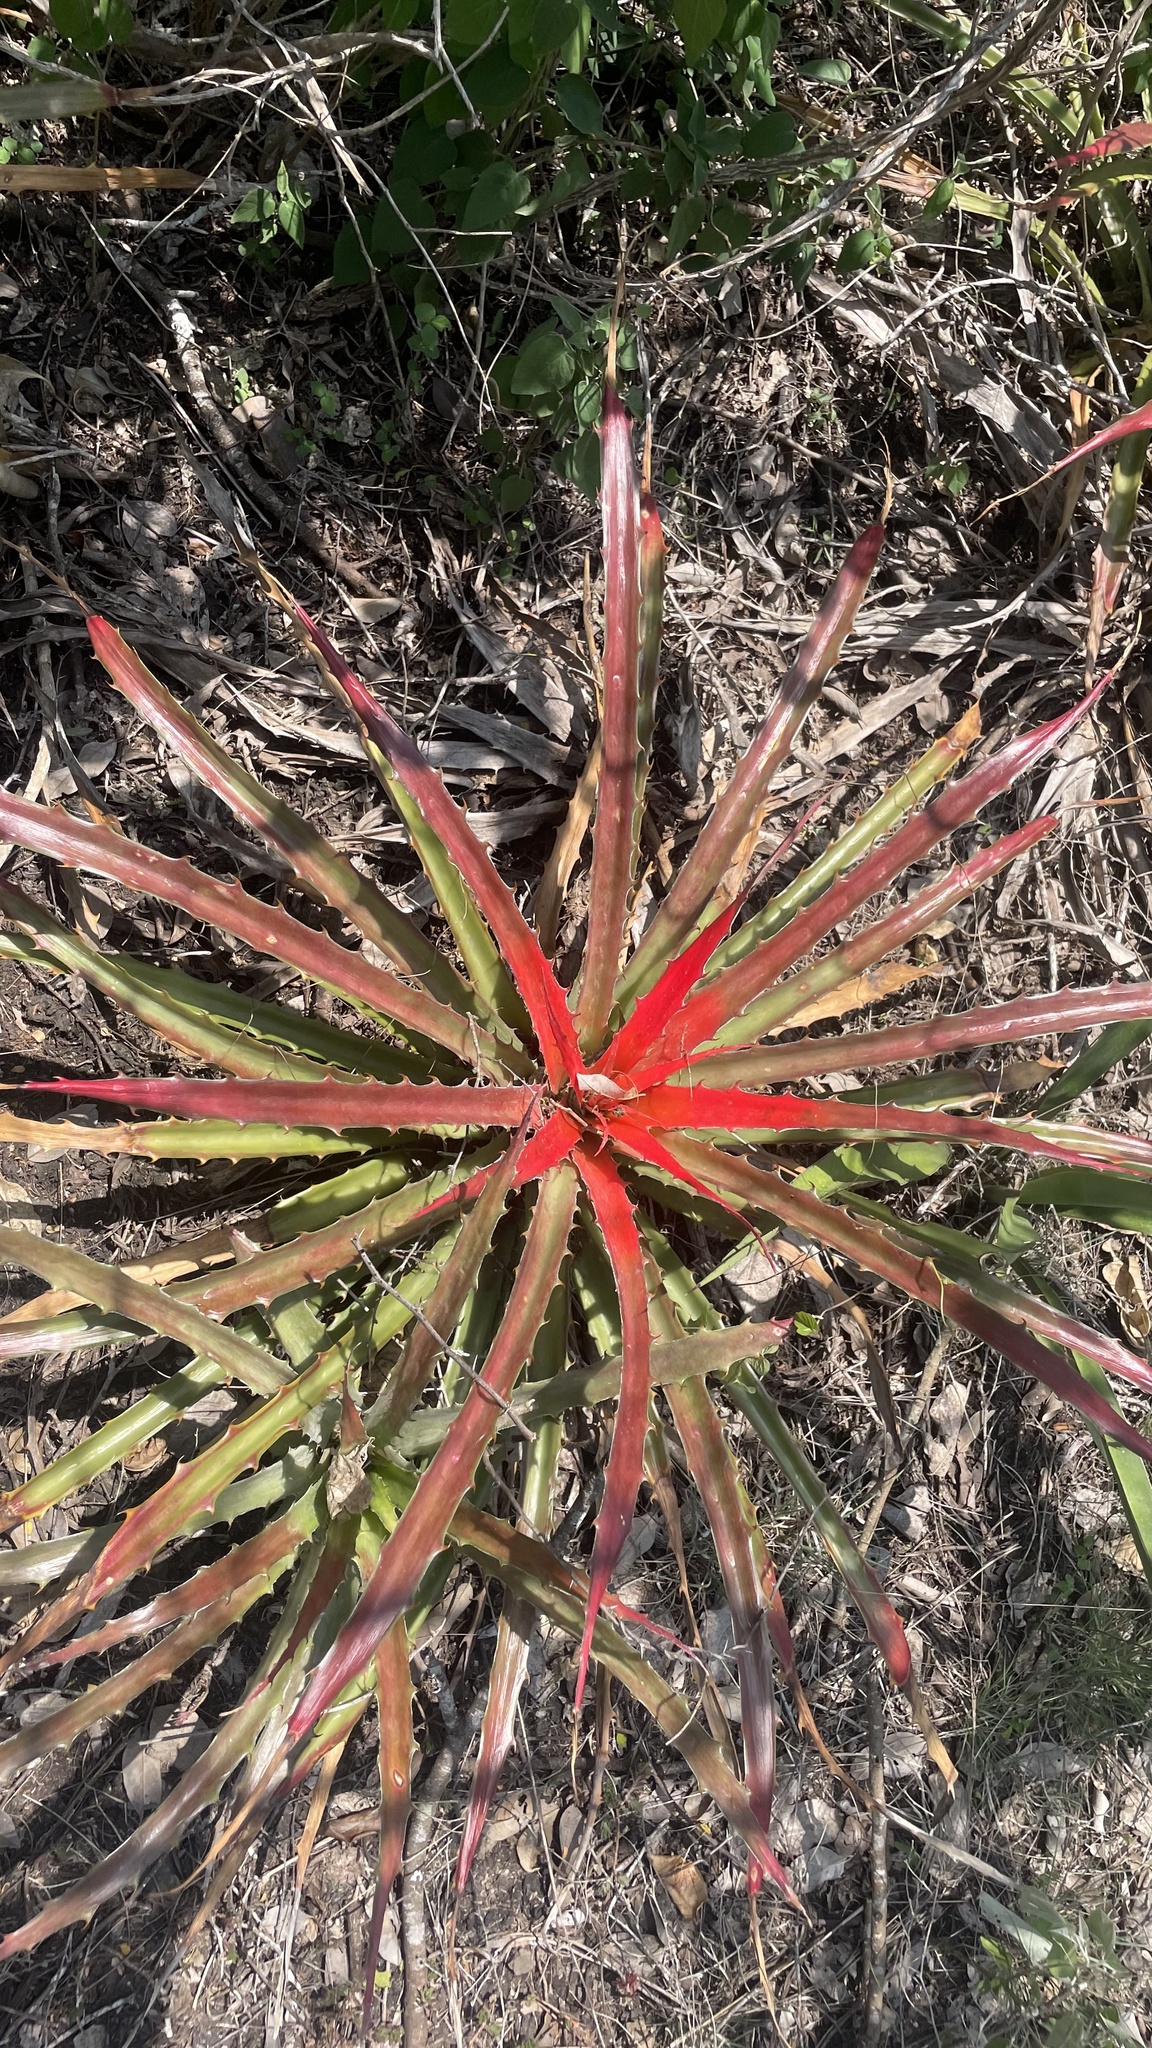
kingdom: Plantae
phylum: Tracheophyta
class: Liliopsida
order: Poales
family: Bromeliaceae
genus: Bromelia
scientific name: Bromelia pinguin
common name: Pinguin
